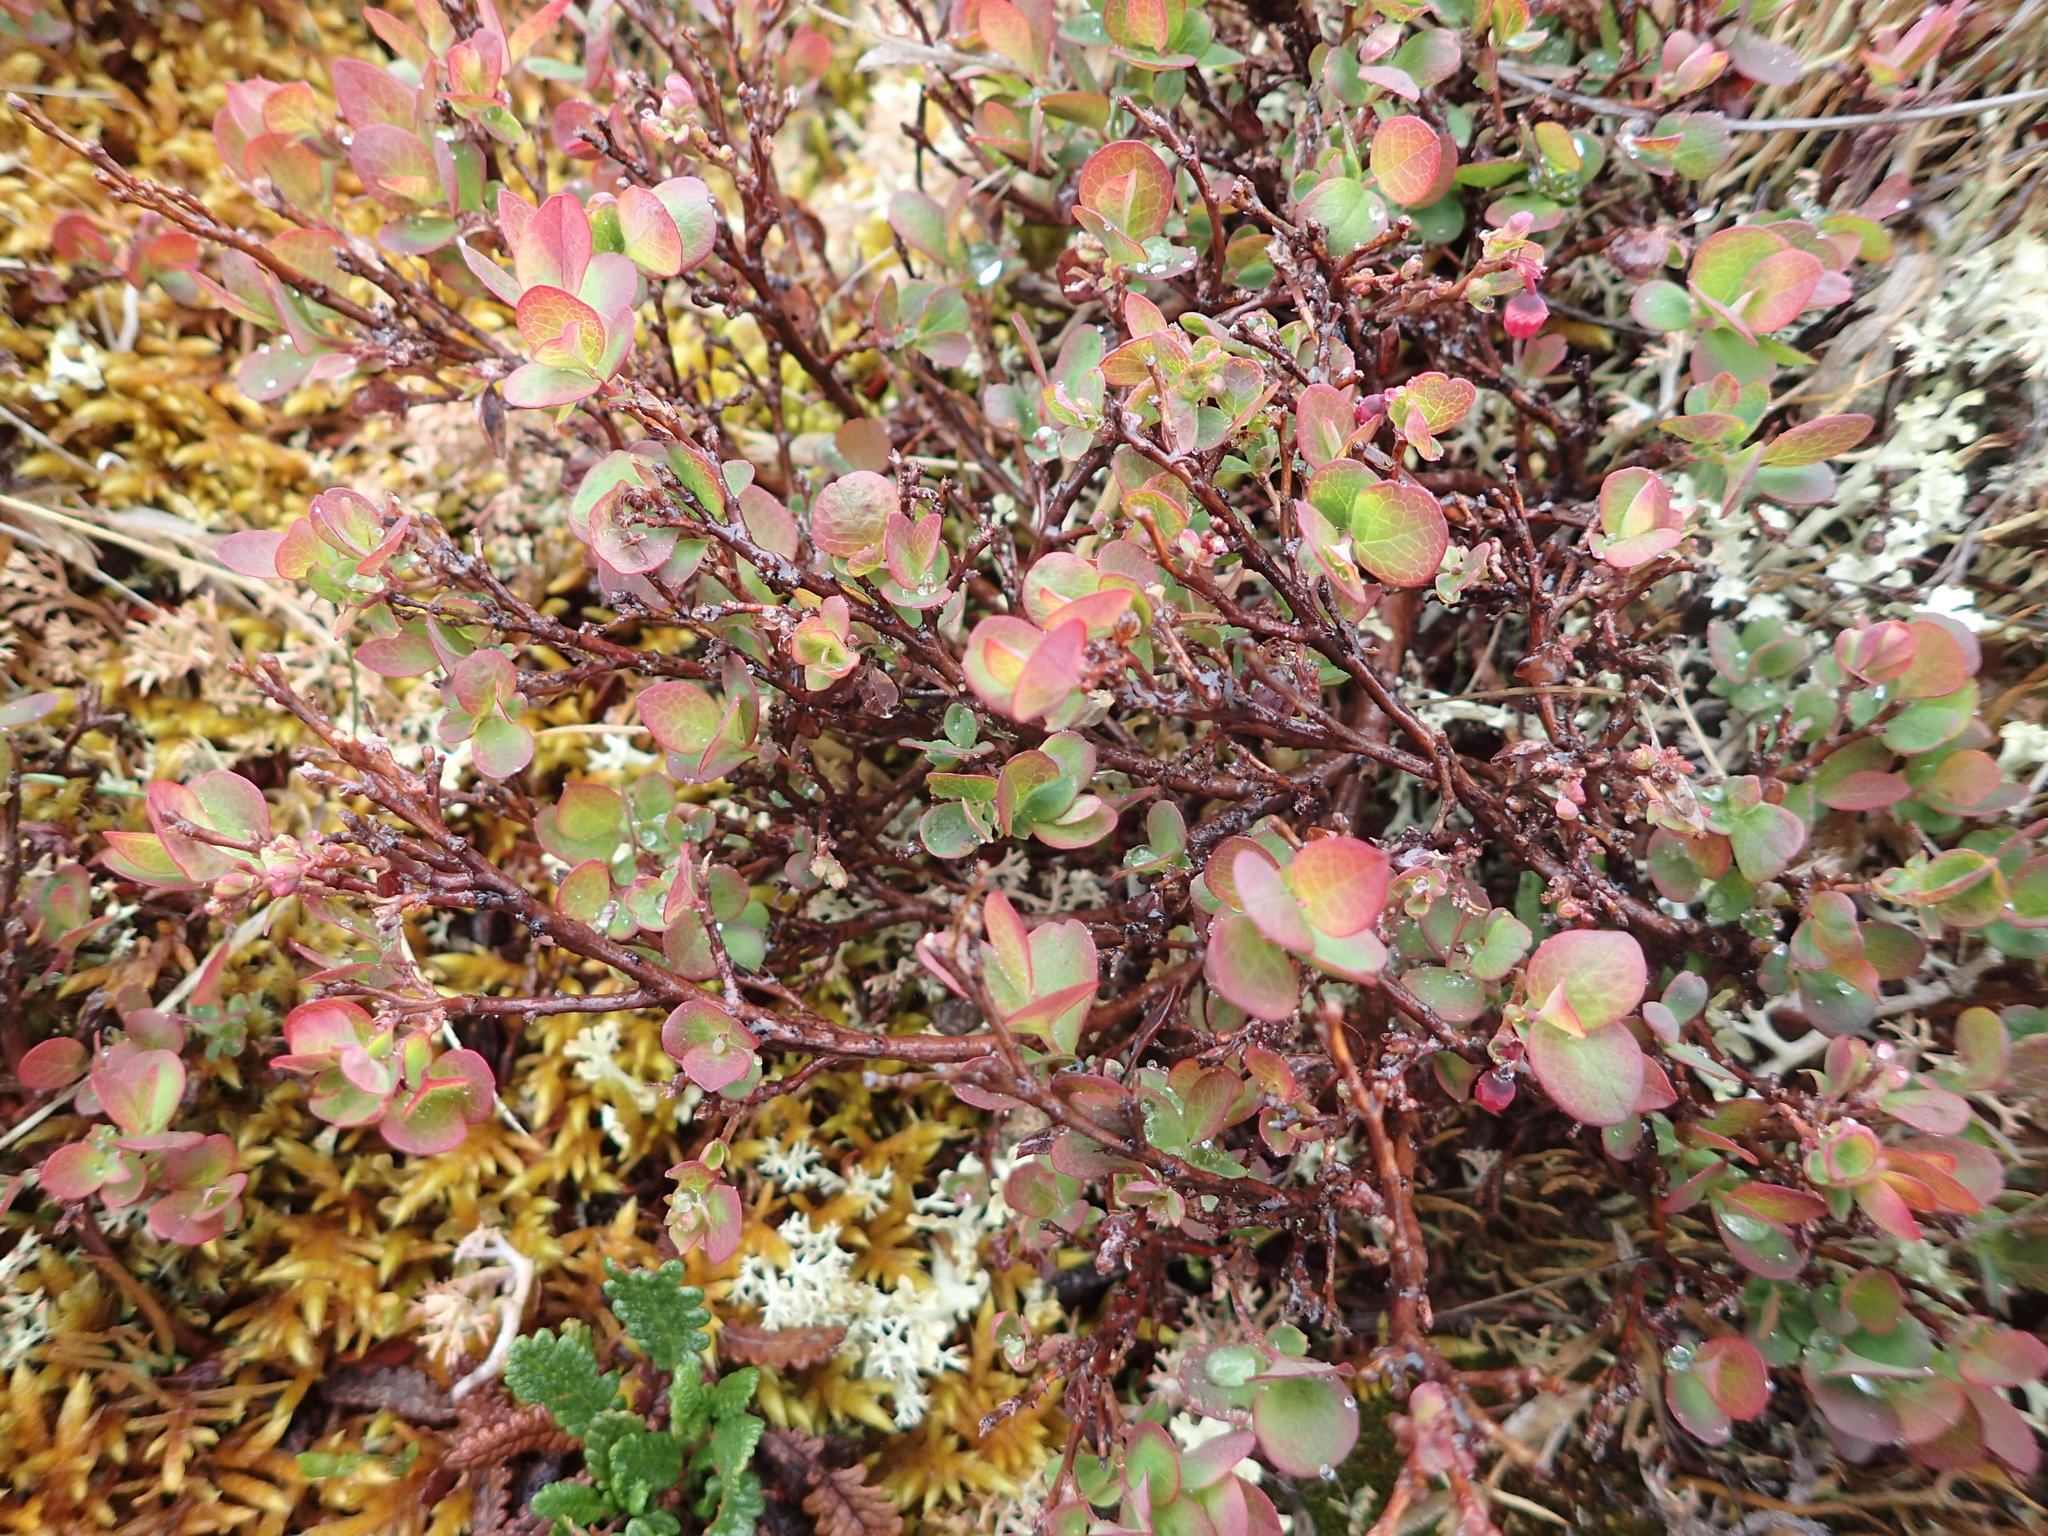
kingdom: Plantae
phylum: Tracheophyta
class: Magnoliopsida
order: Ericales
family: Ericaceae
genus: Vaccinium
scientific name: Vaccinium uliginosum
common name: Bog bilberry
